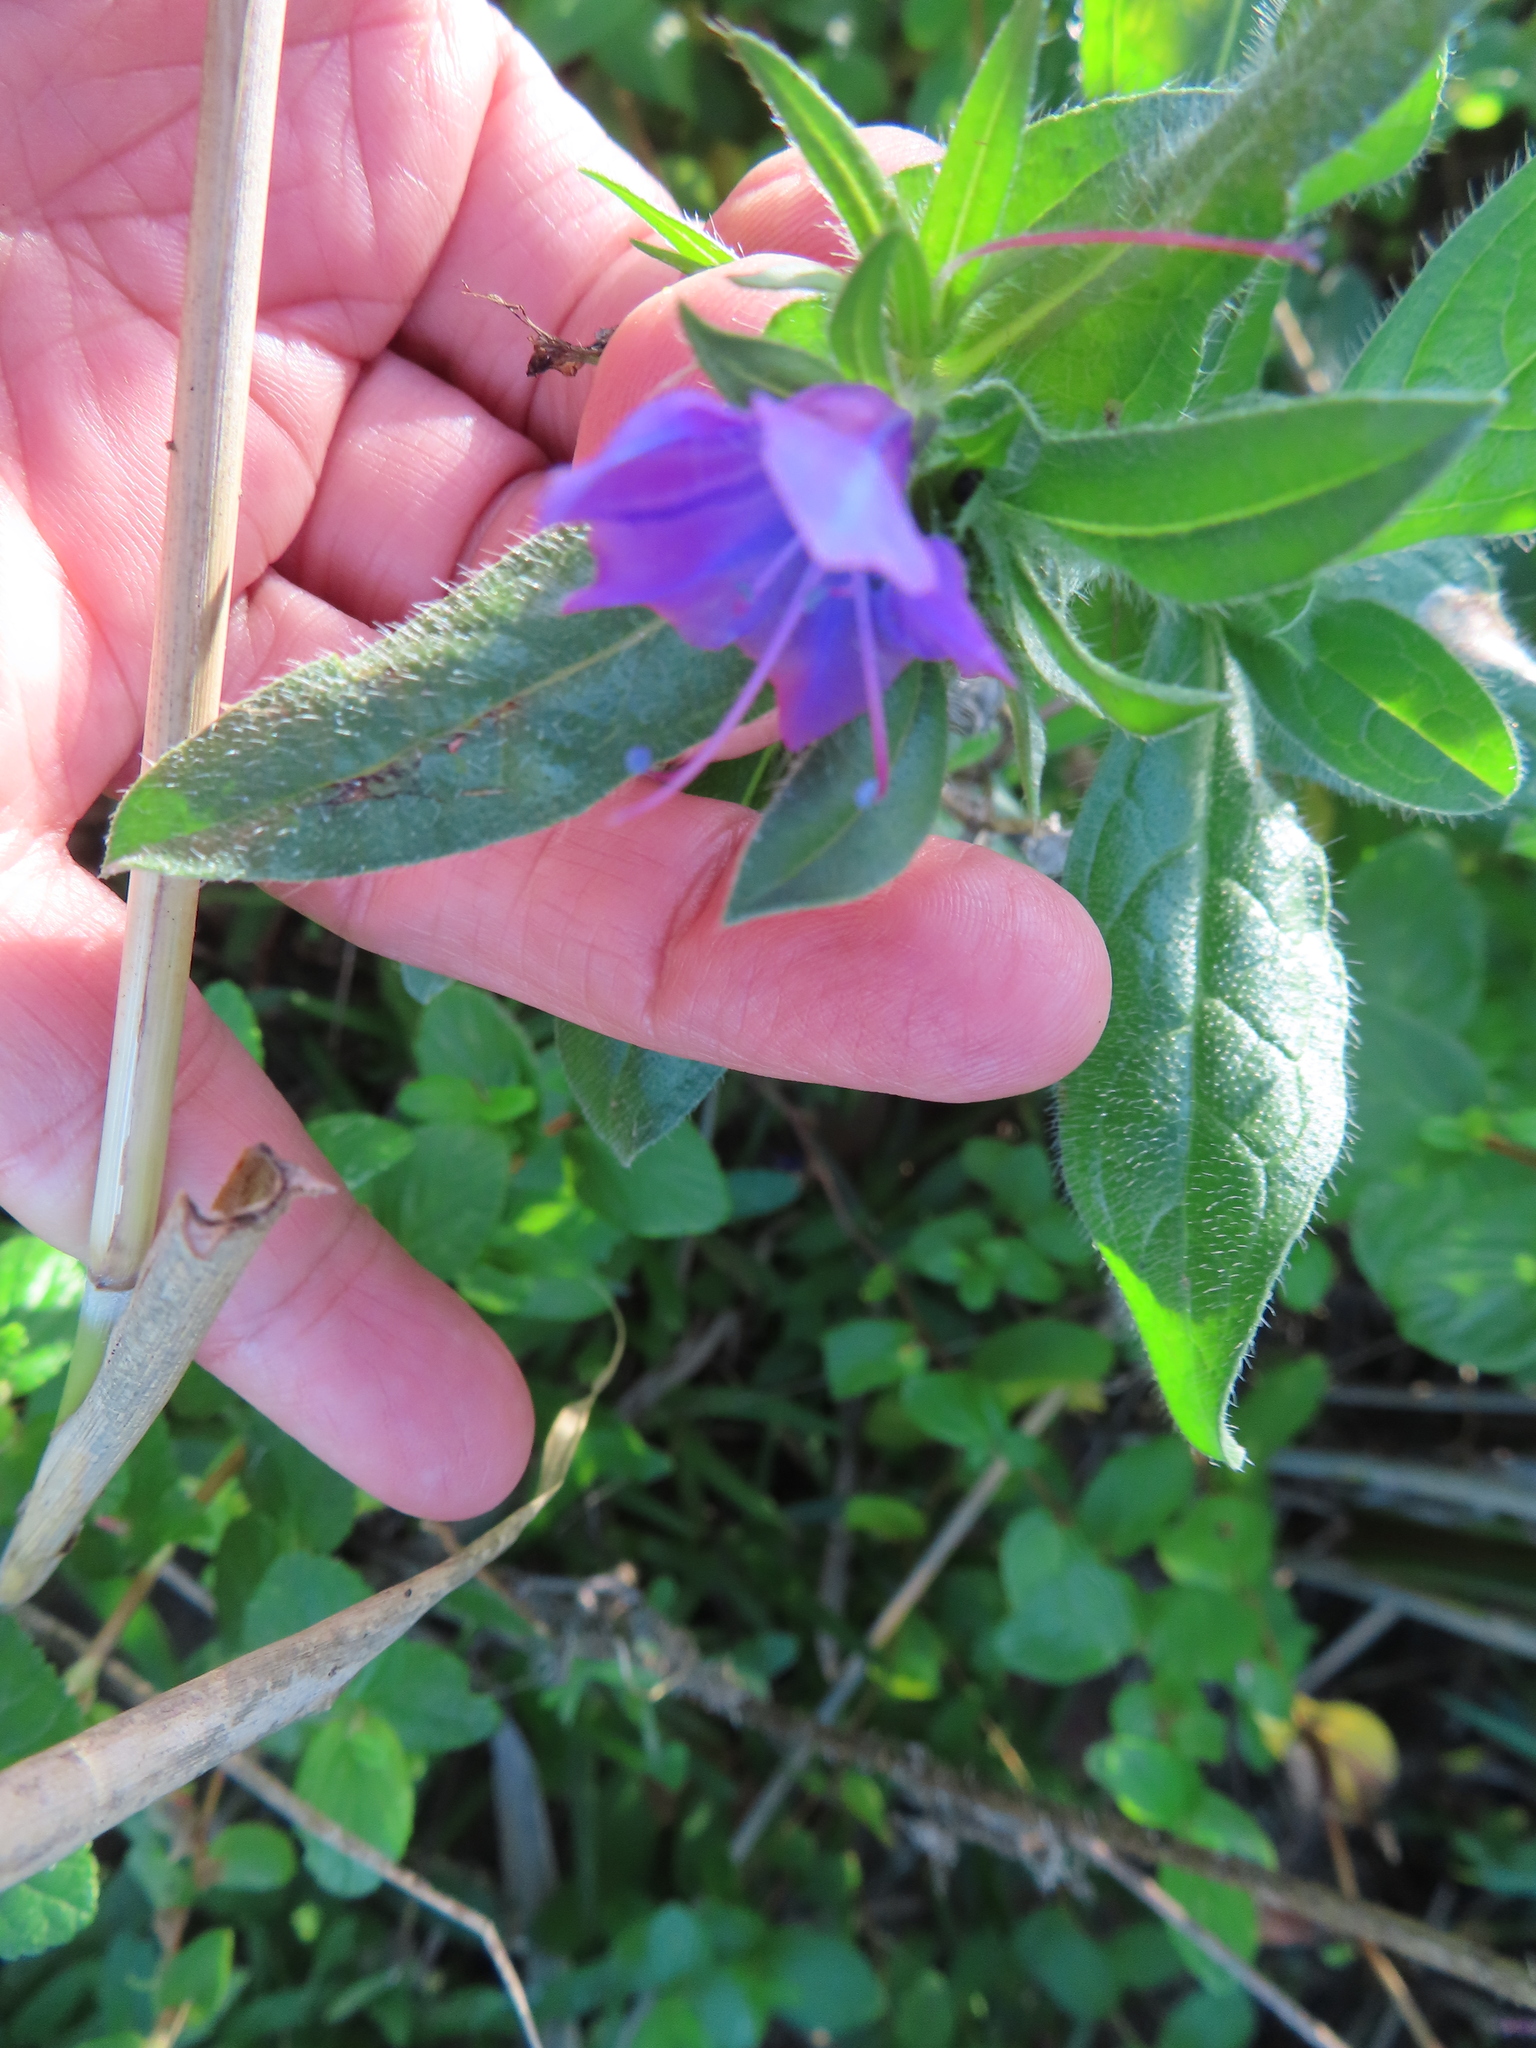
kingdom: Plantae
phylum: Tracheophyta
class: Magnoliopsida
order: Boraginales
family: Boraginaceae
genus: Echium
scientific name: Echium plantagineum
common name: Purple viper's-bugloss
